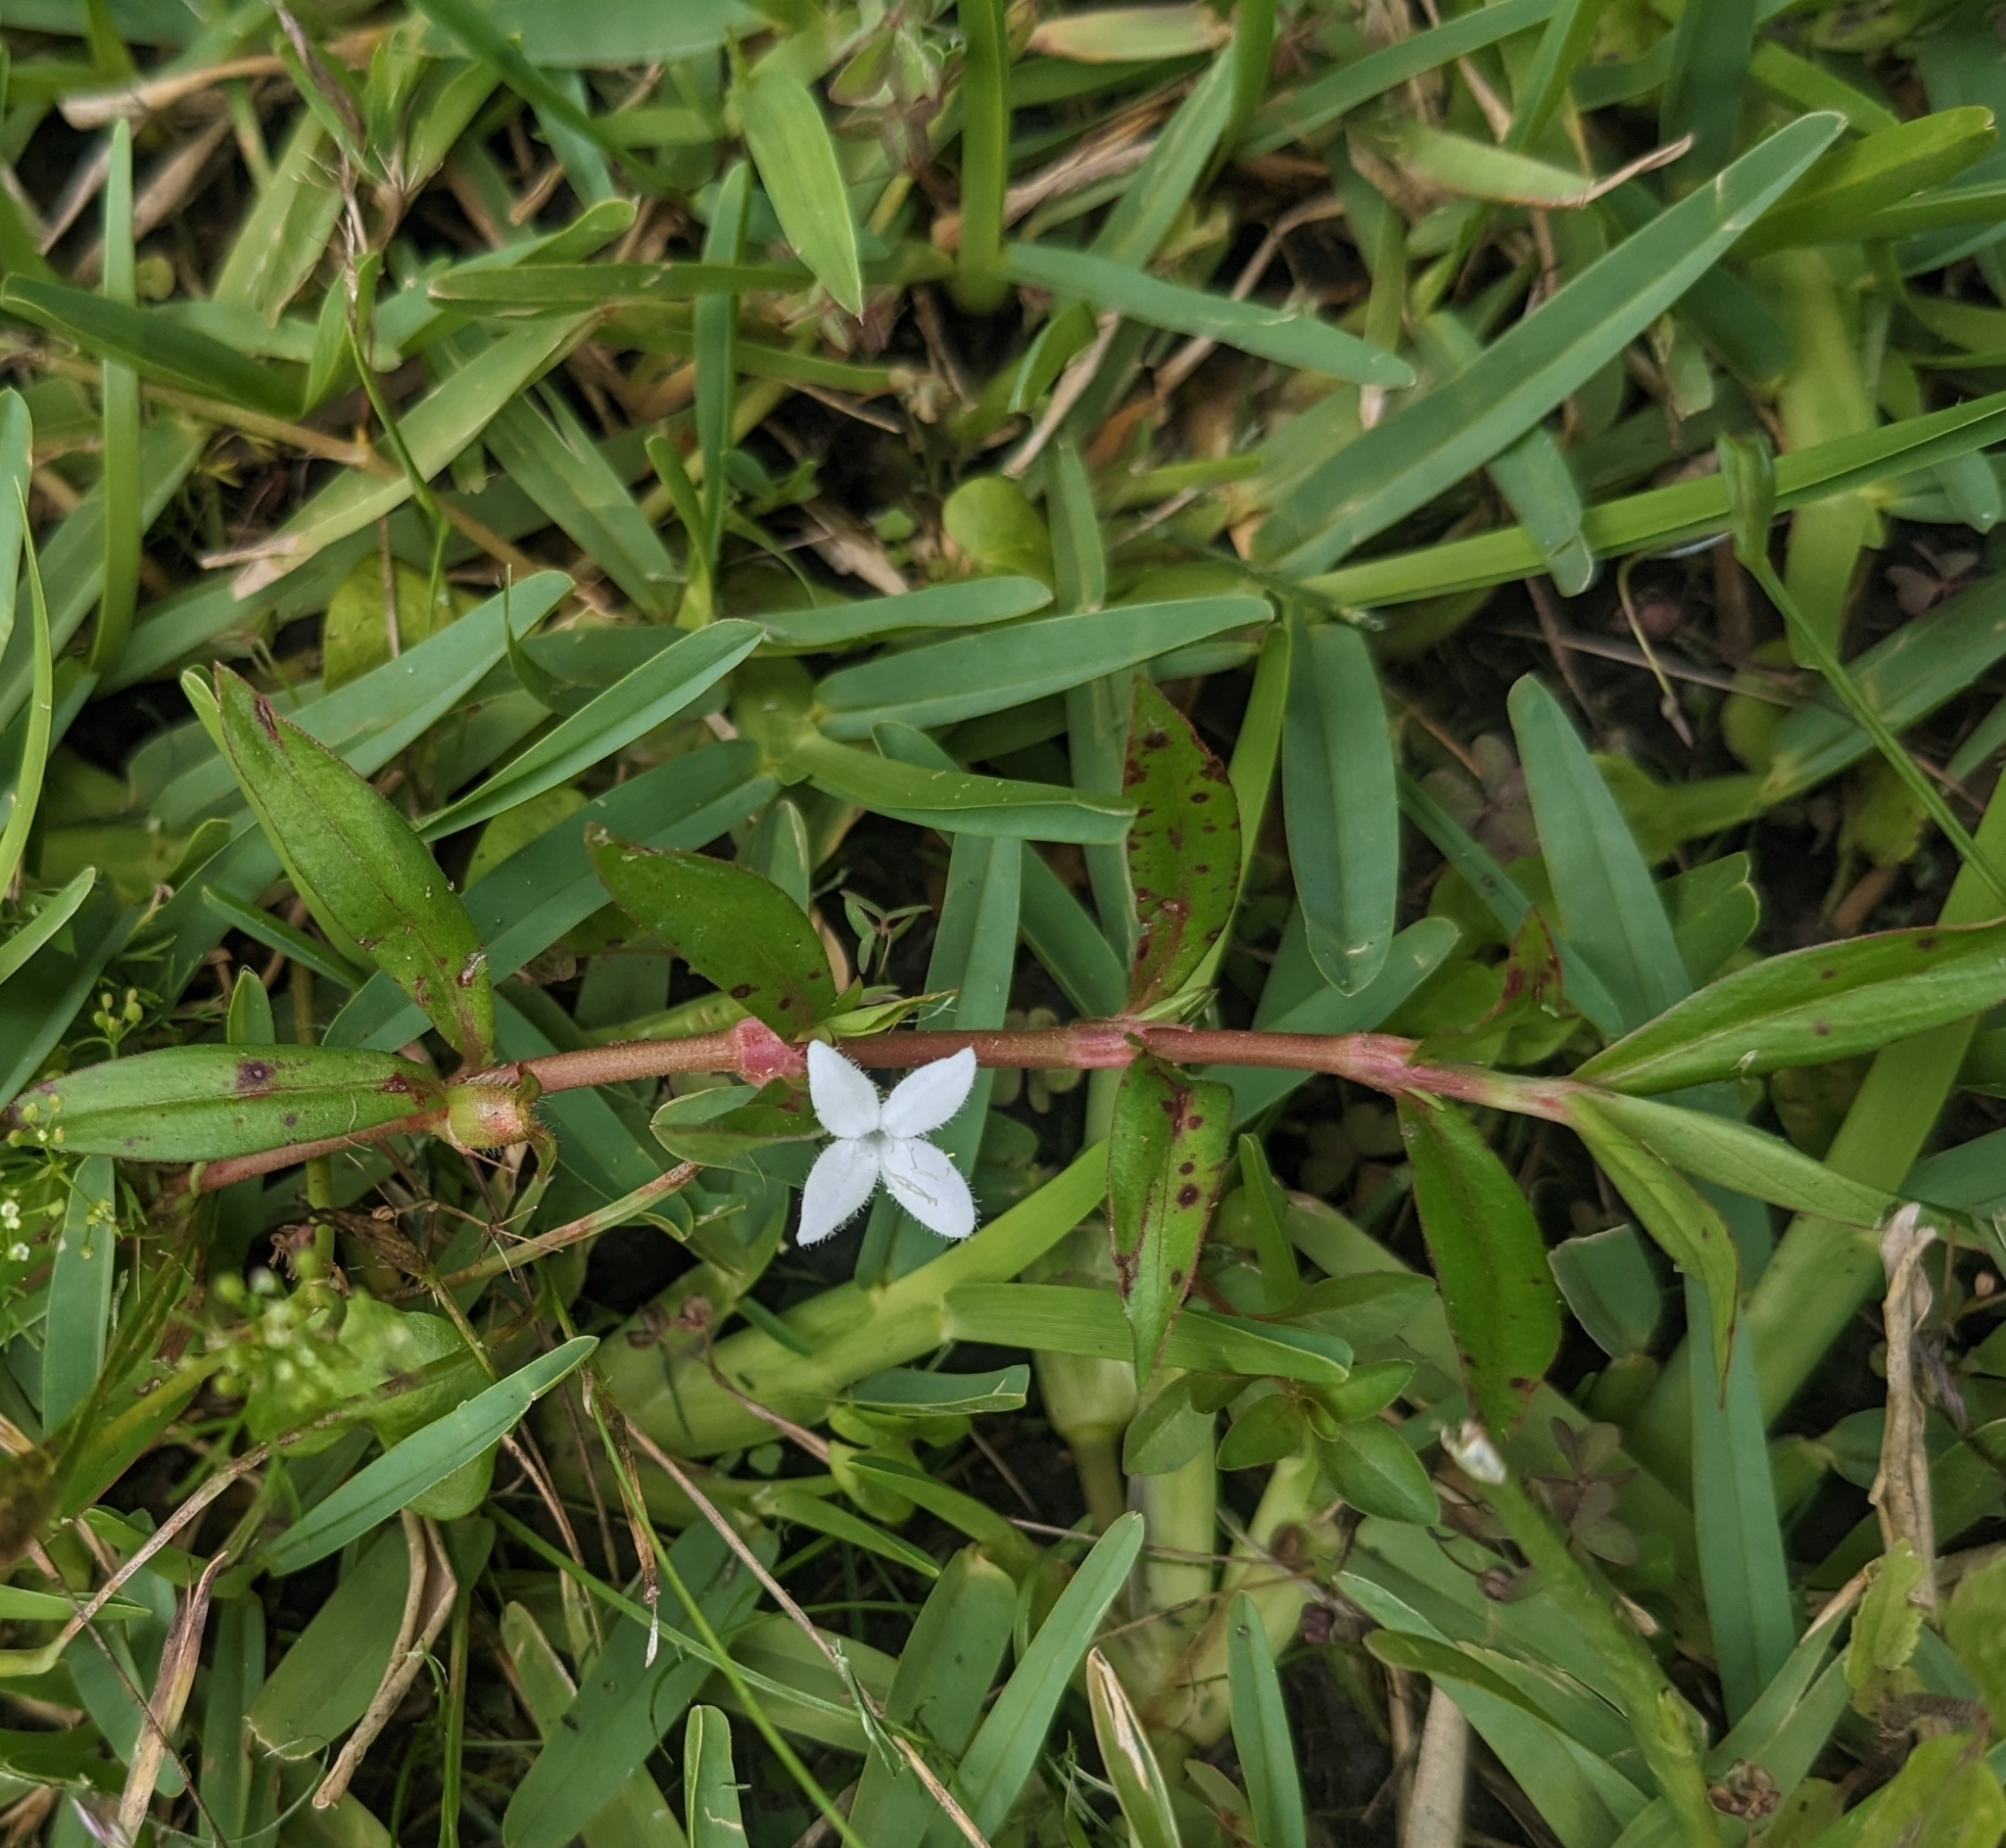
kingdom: Plantae
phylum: Tracheophyta
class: Magnoliopsida
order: Gentianales
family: Rubiaceae
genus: Diodia
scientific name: Diodia virginiana
